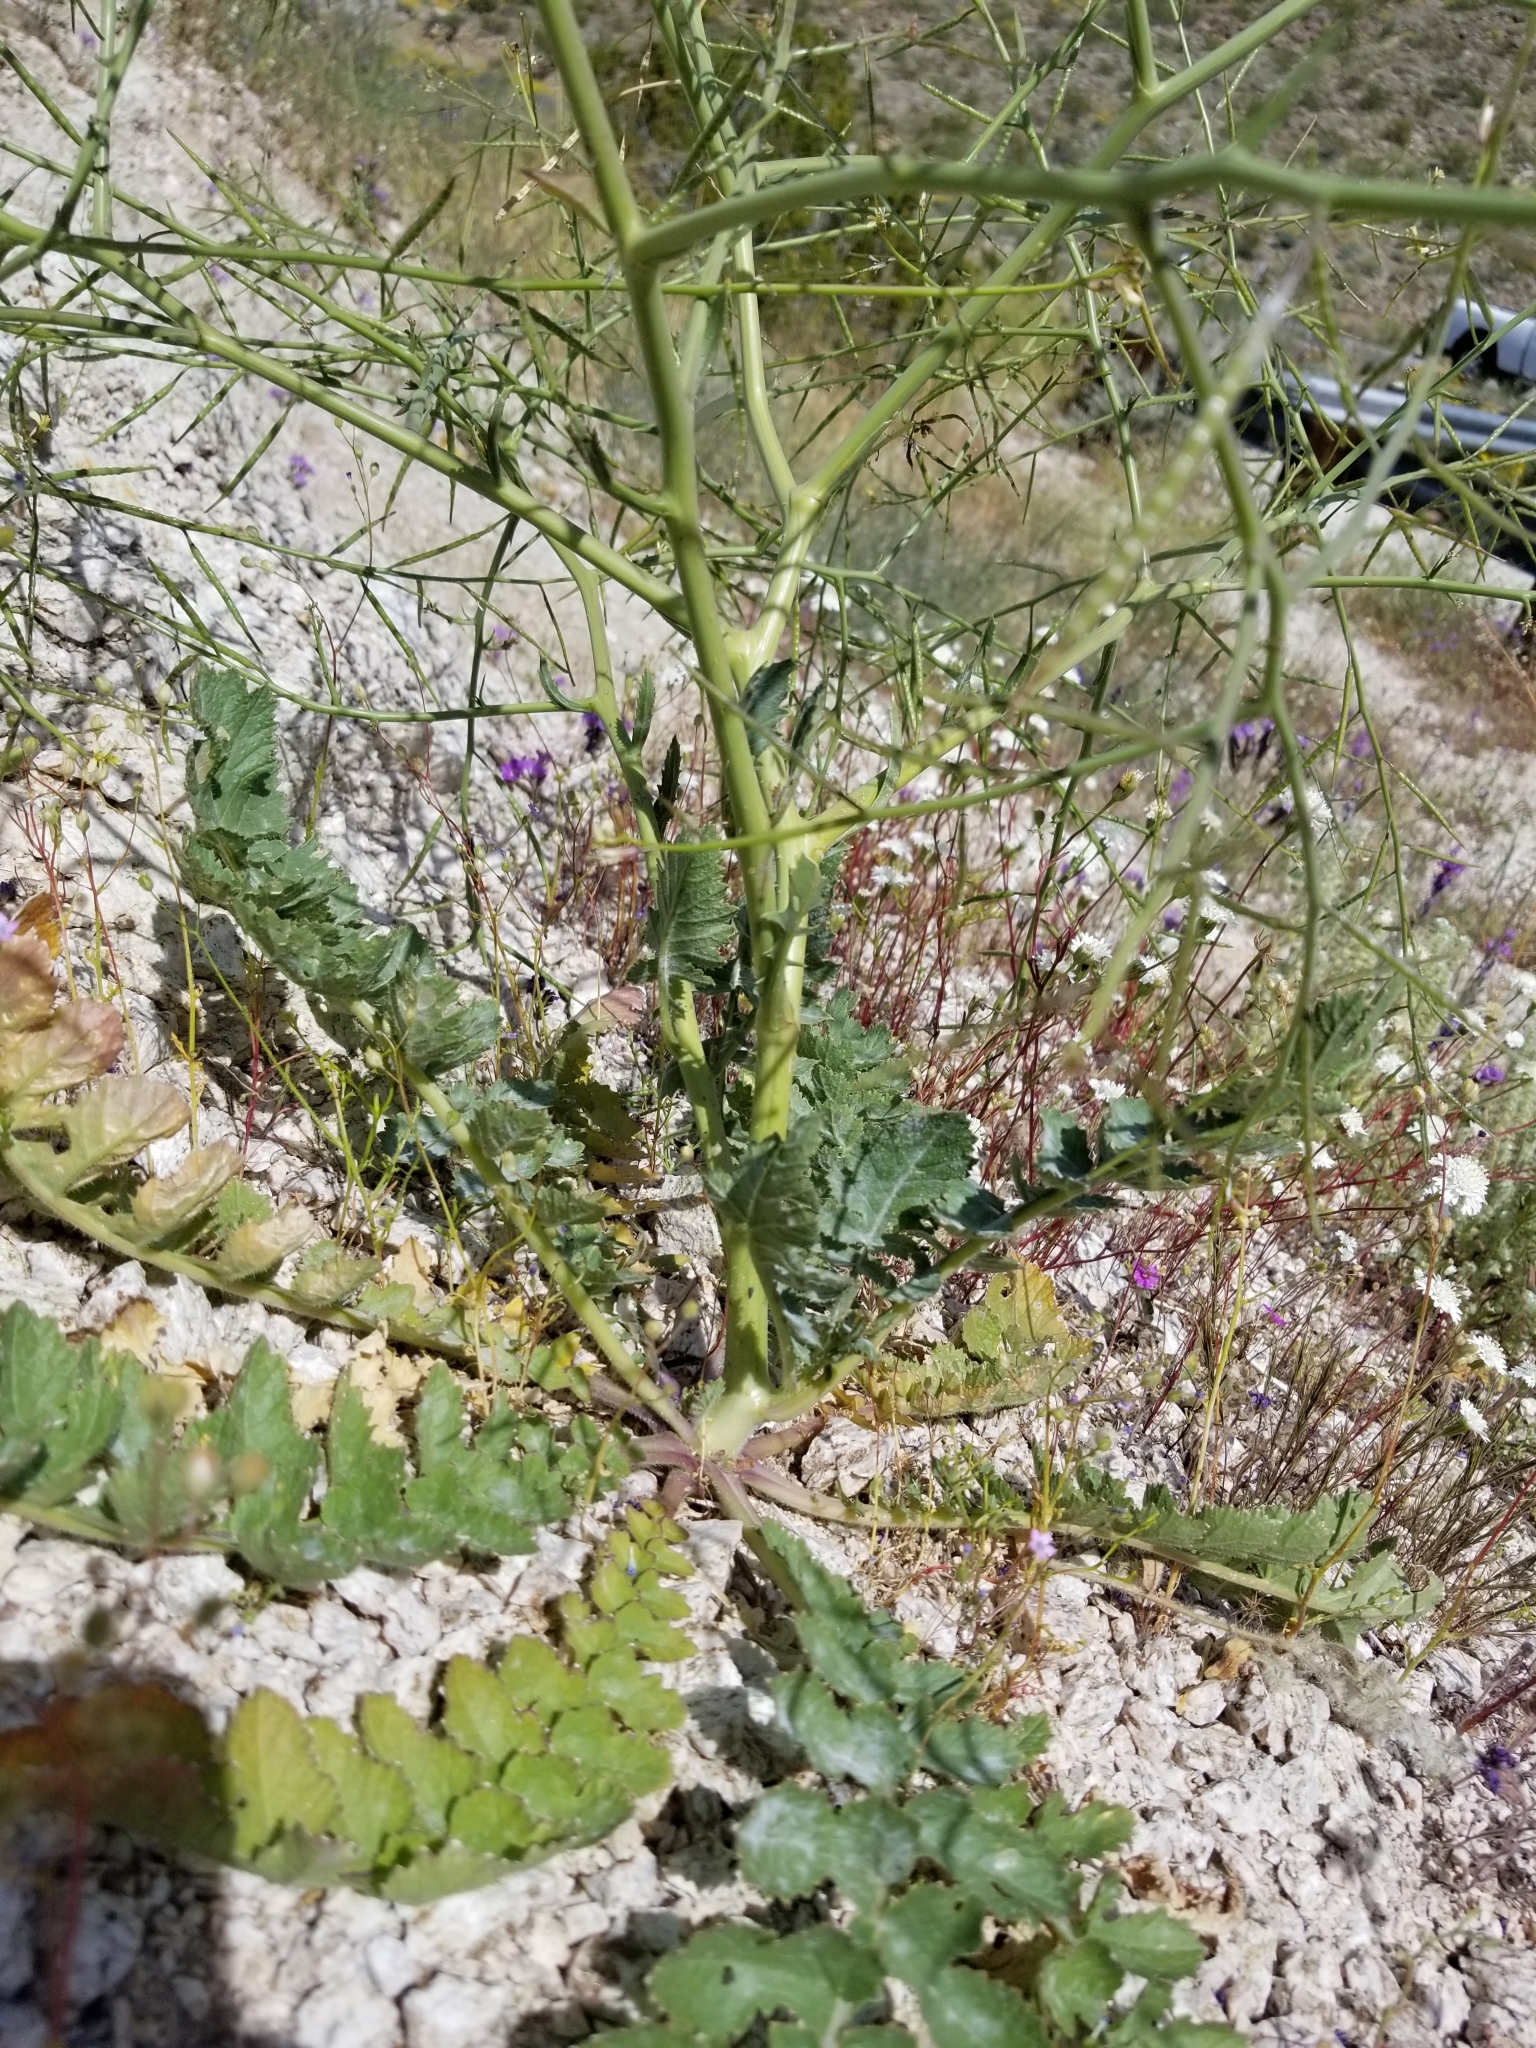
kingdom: Plantae
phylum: Tracheophyta
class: Magnoliopsida
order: Brassicales
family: Brassicaceae
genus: Brassica
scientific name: Brassica tournefortii
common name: Pale cabbage
